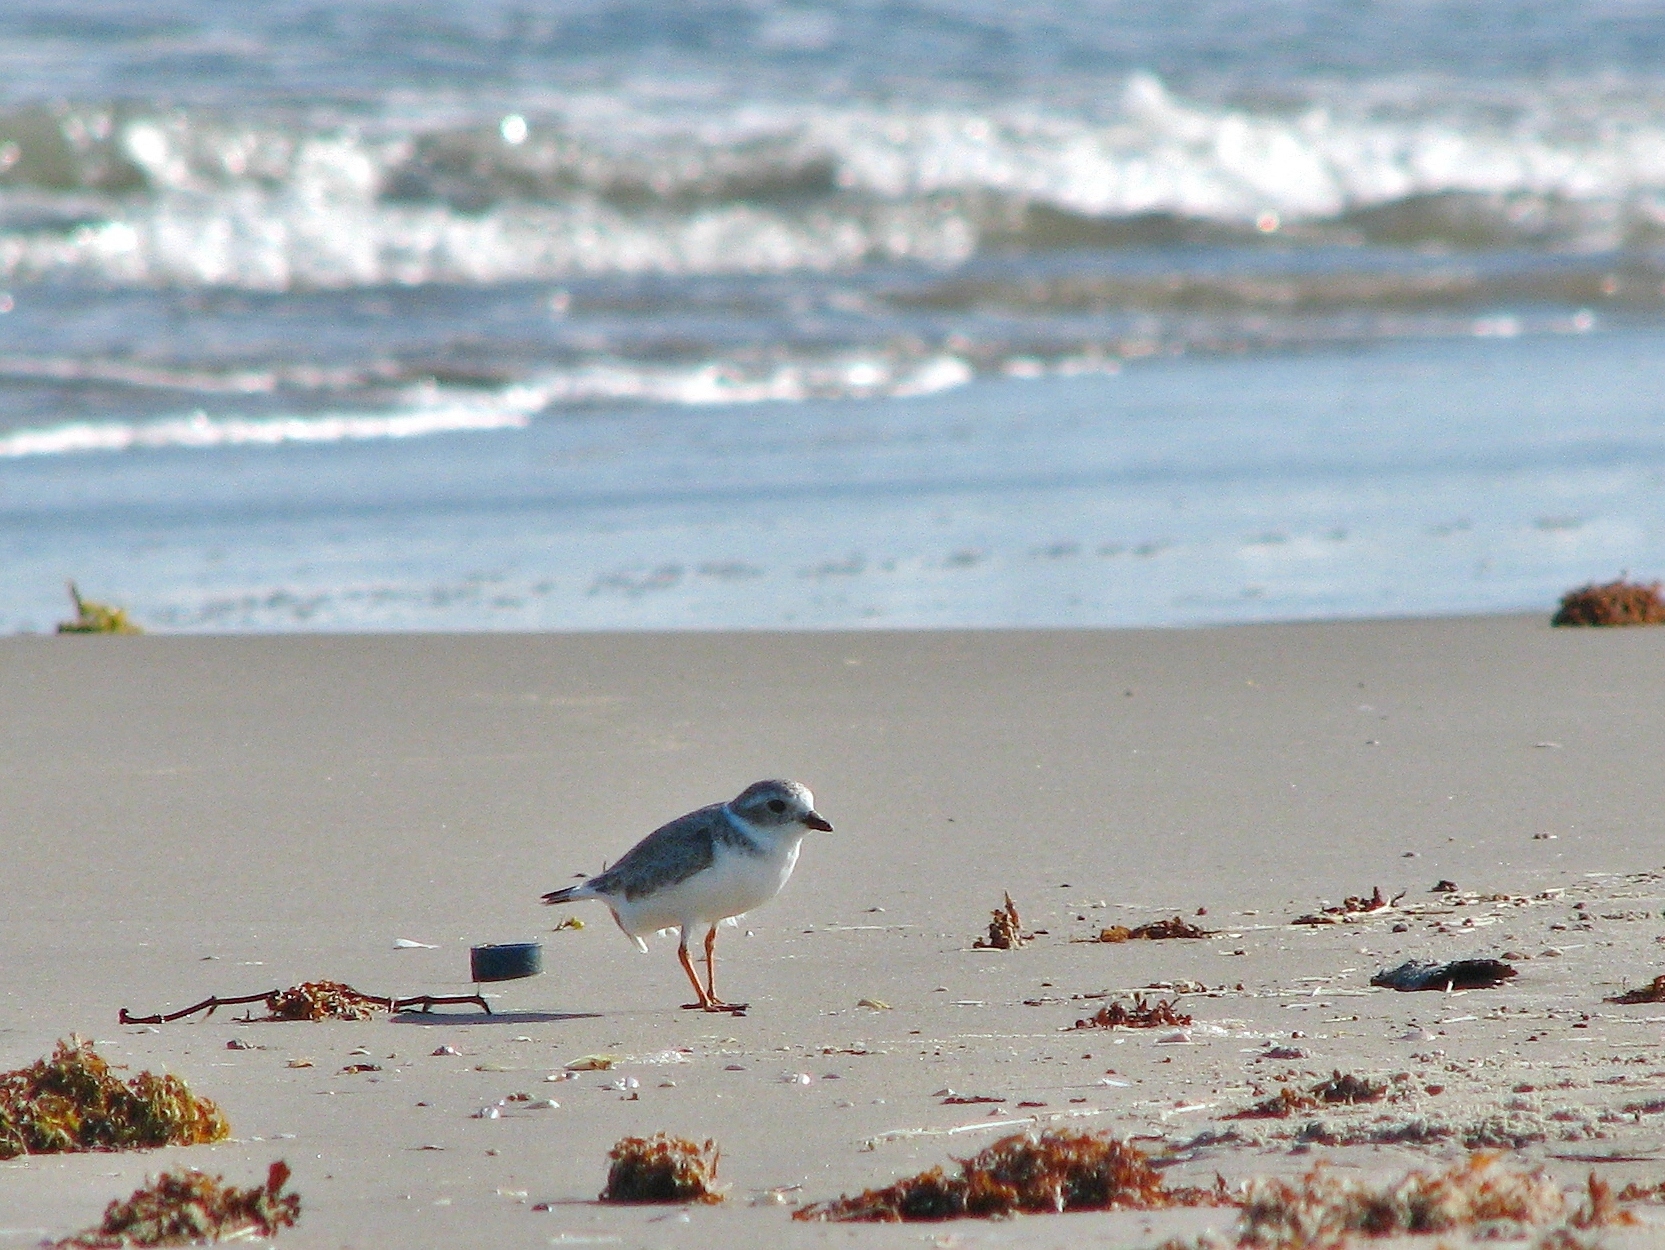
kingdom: Animalia
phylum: Chordata
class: Aves
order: Charadriiformes
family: Charadriidae
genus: Charadrius
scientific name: Charadrius melodus
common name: Piping plover
